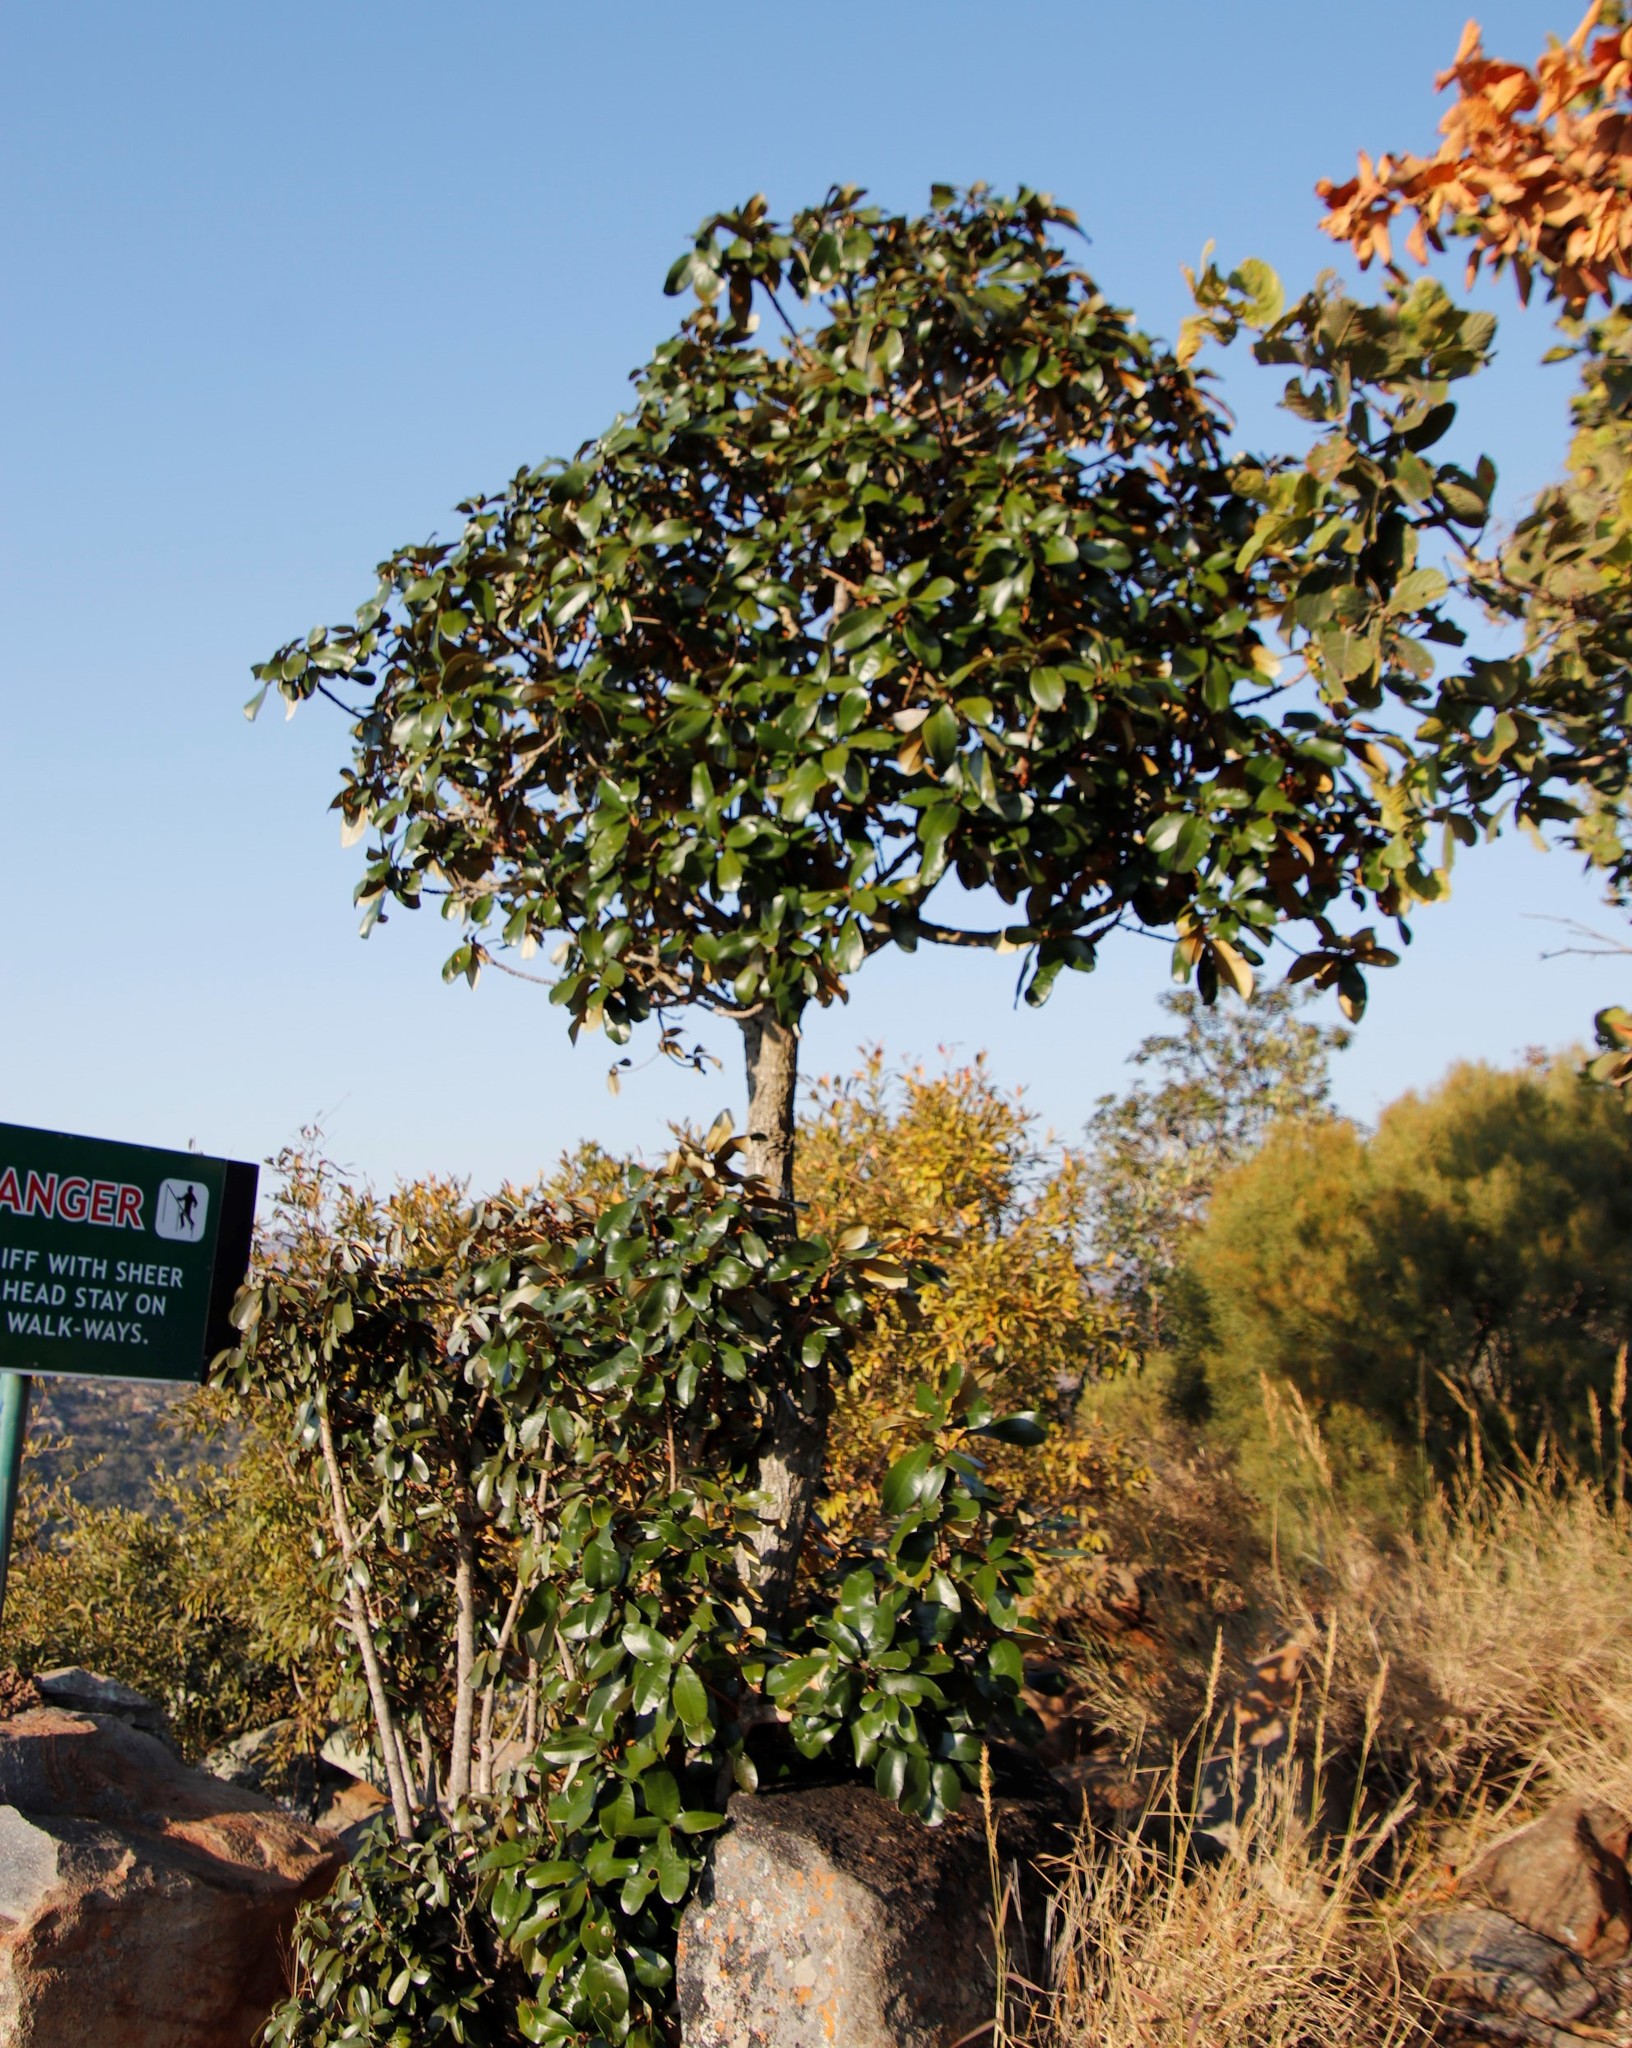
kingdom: Plantae
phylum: Tracheophyta
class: Magnoliopsida
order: Ericales
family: Sapotaceae
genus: Englerophytum
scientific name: Englerophytum magalismontanum
